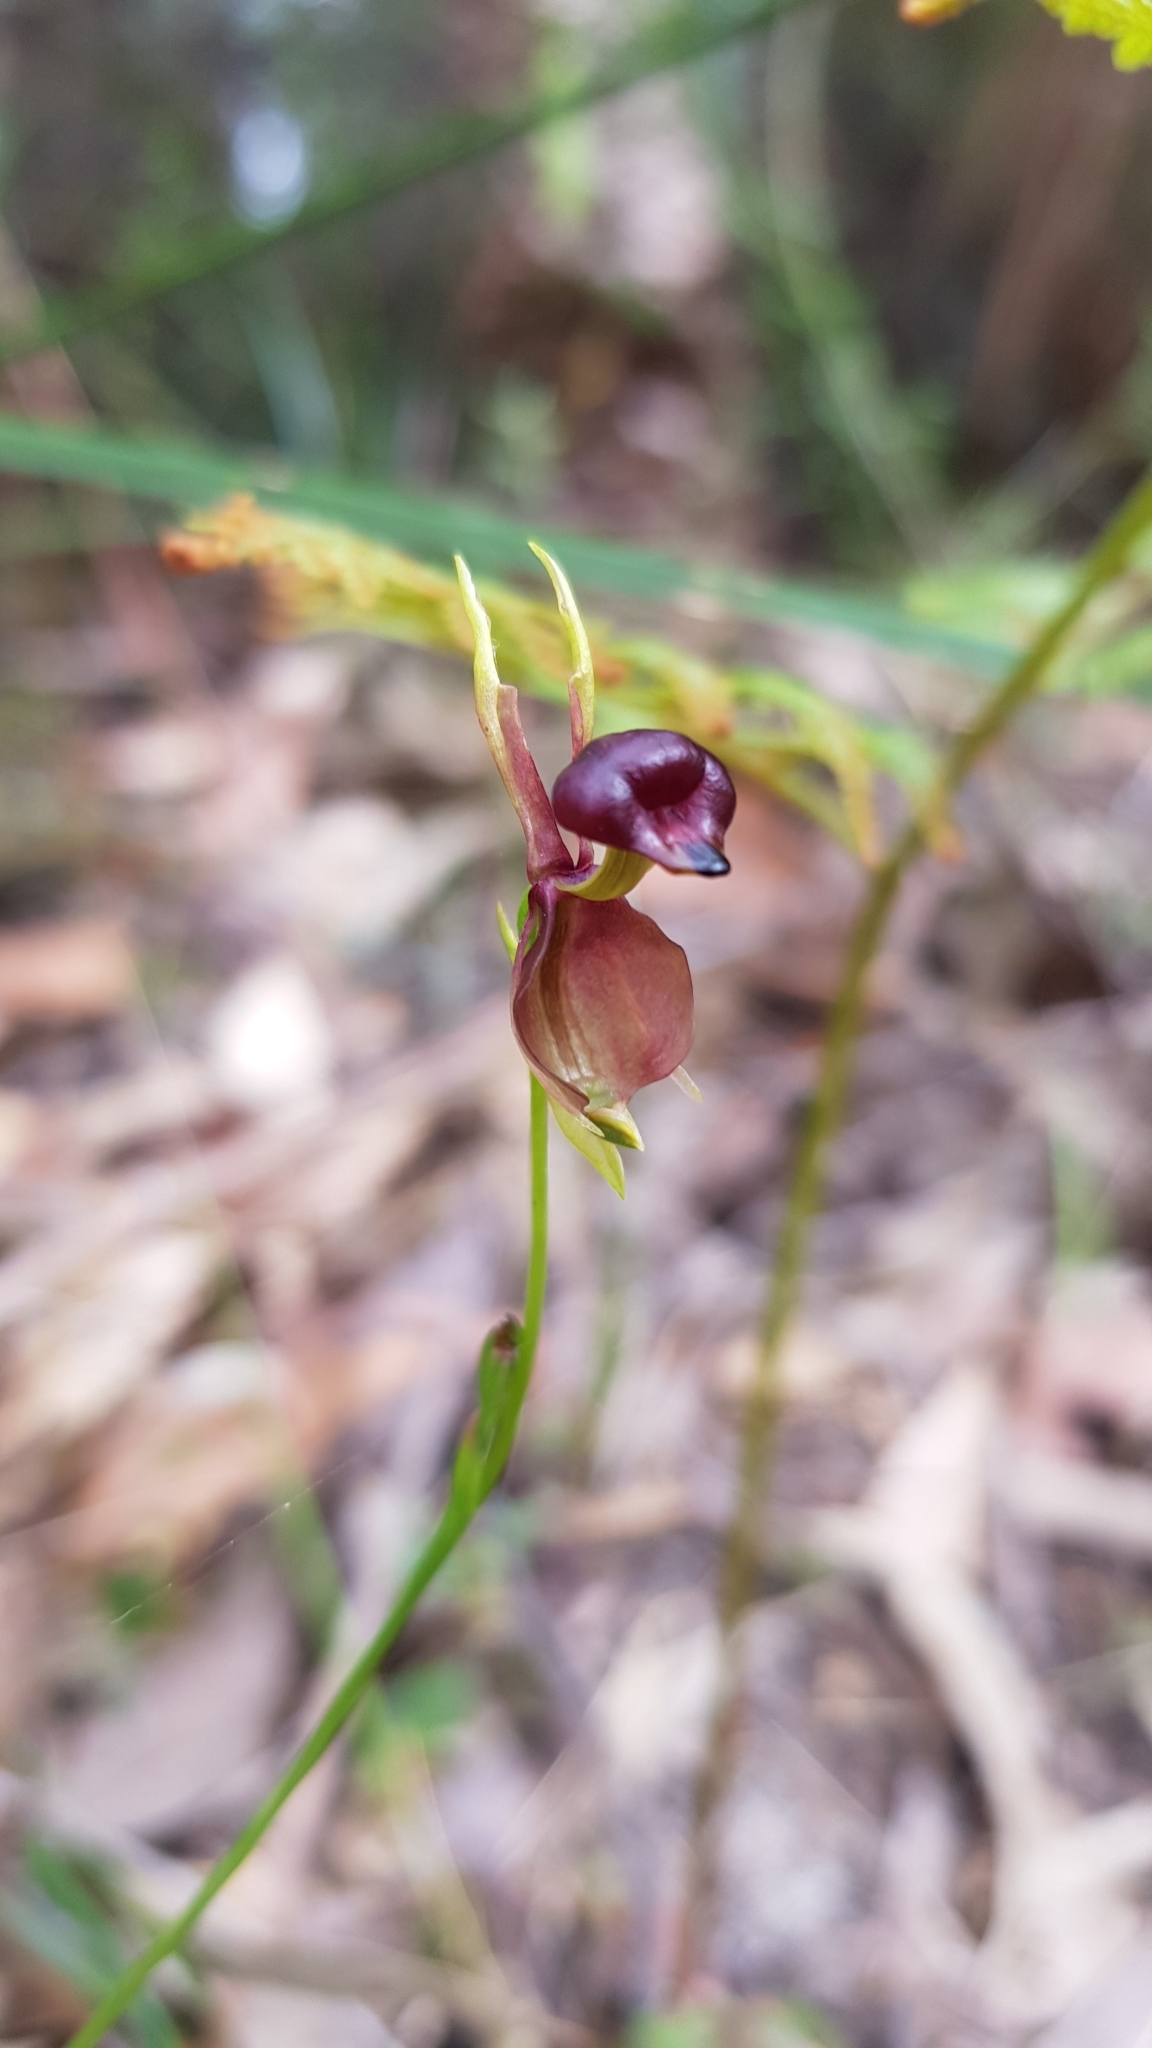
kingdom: Plantae
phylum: Tracheophyta
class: Liliopsida
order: Asparagales
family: Orchidaceae
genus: Caleana
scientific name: Caleana major
